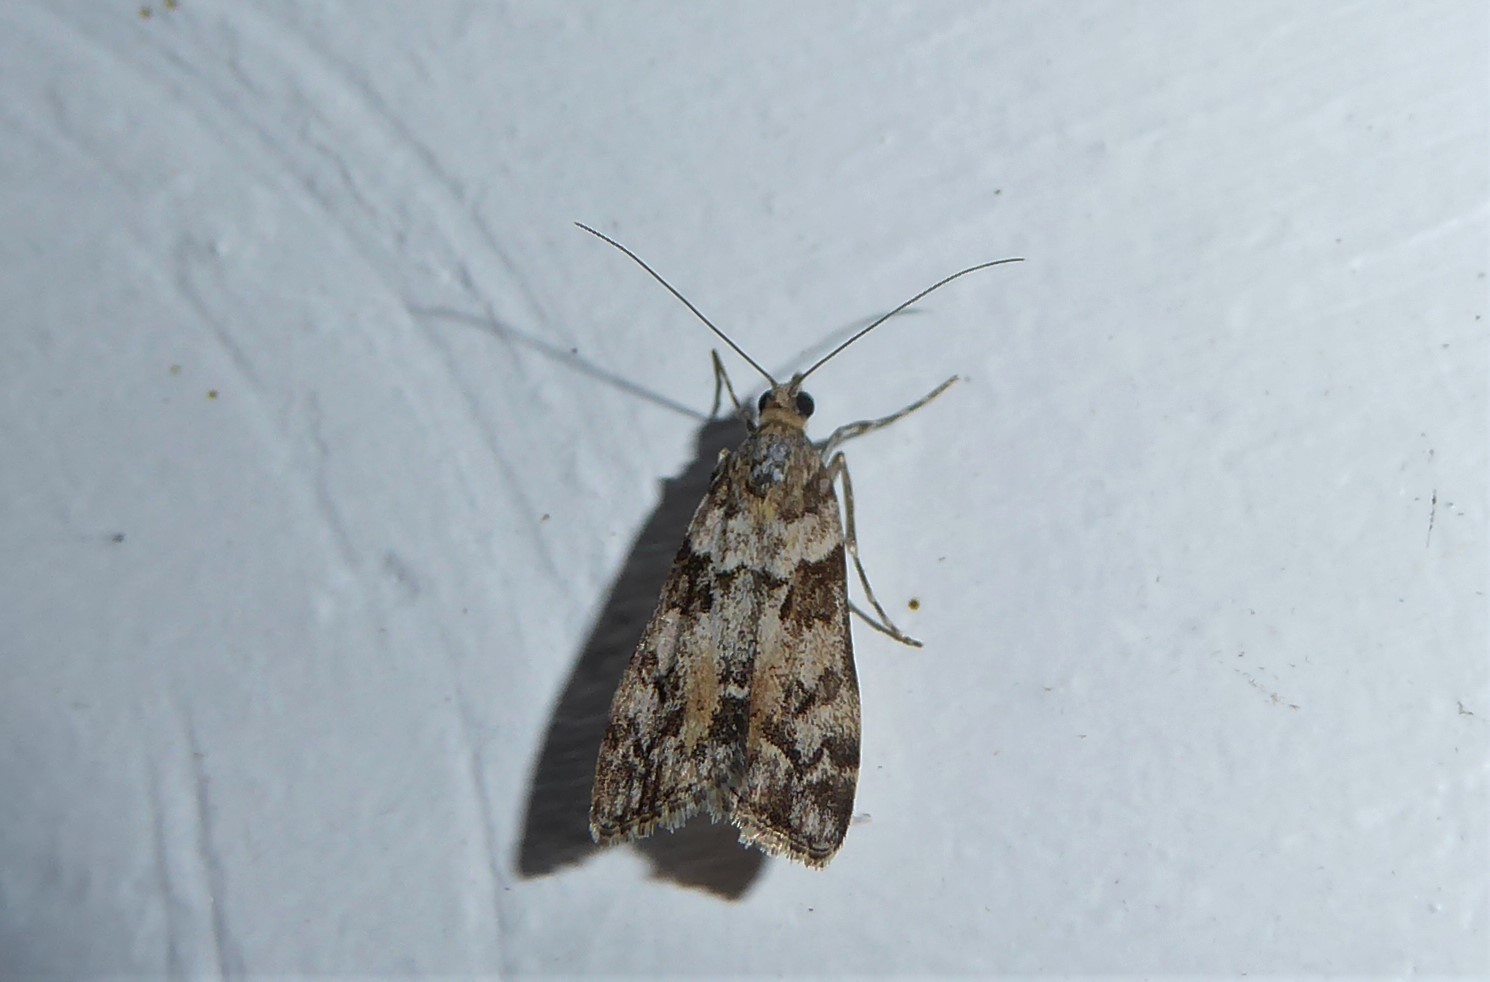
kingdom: Animalia
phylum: Arthropoda
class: Insecta
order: Lepidoptera
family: Crambidae
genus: Eudonia
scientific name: Eudonia submarginalis
